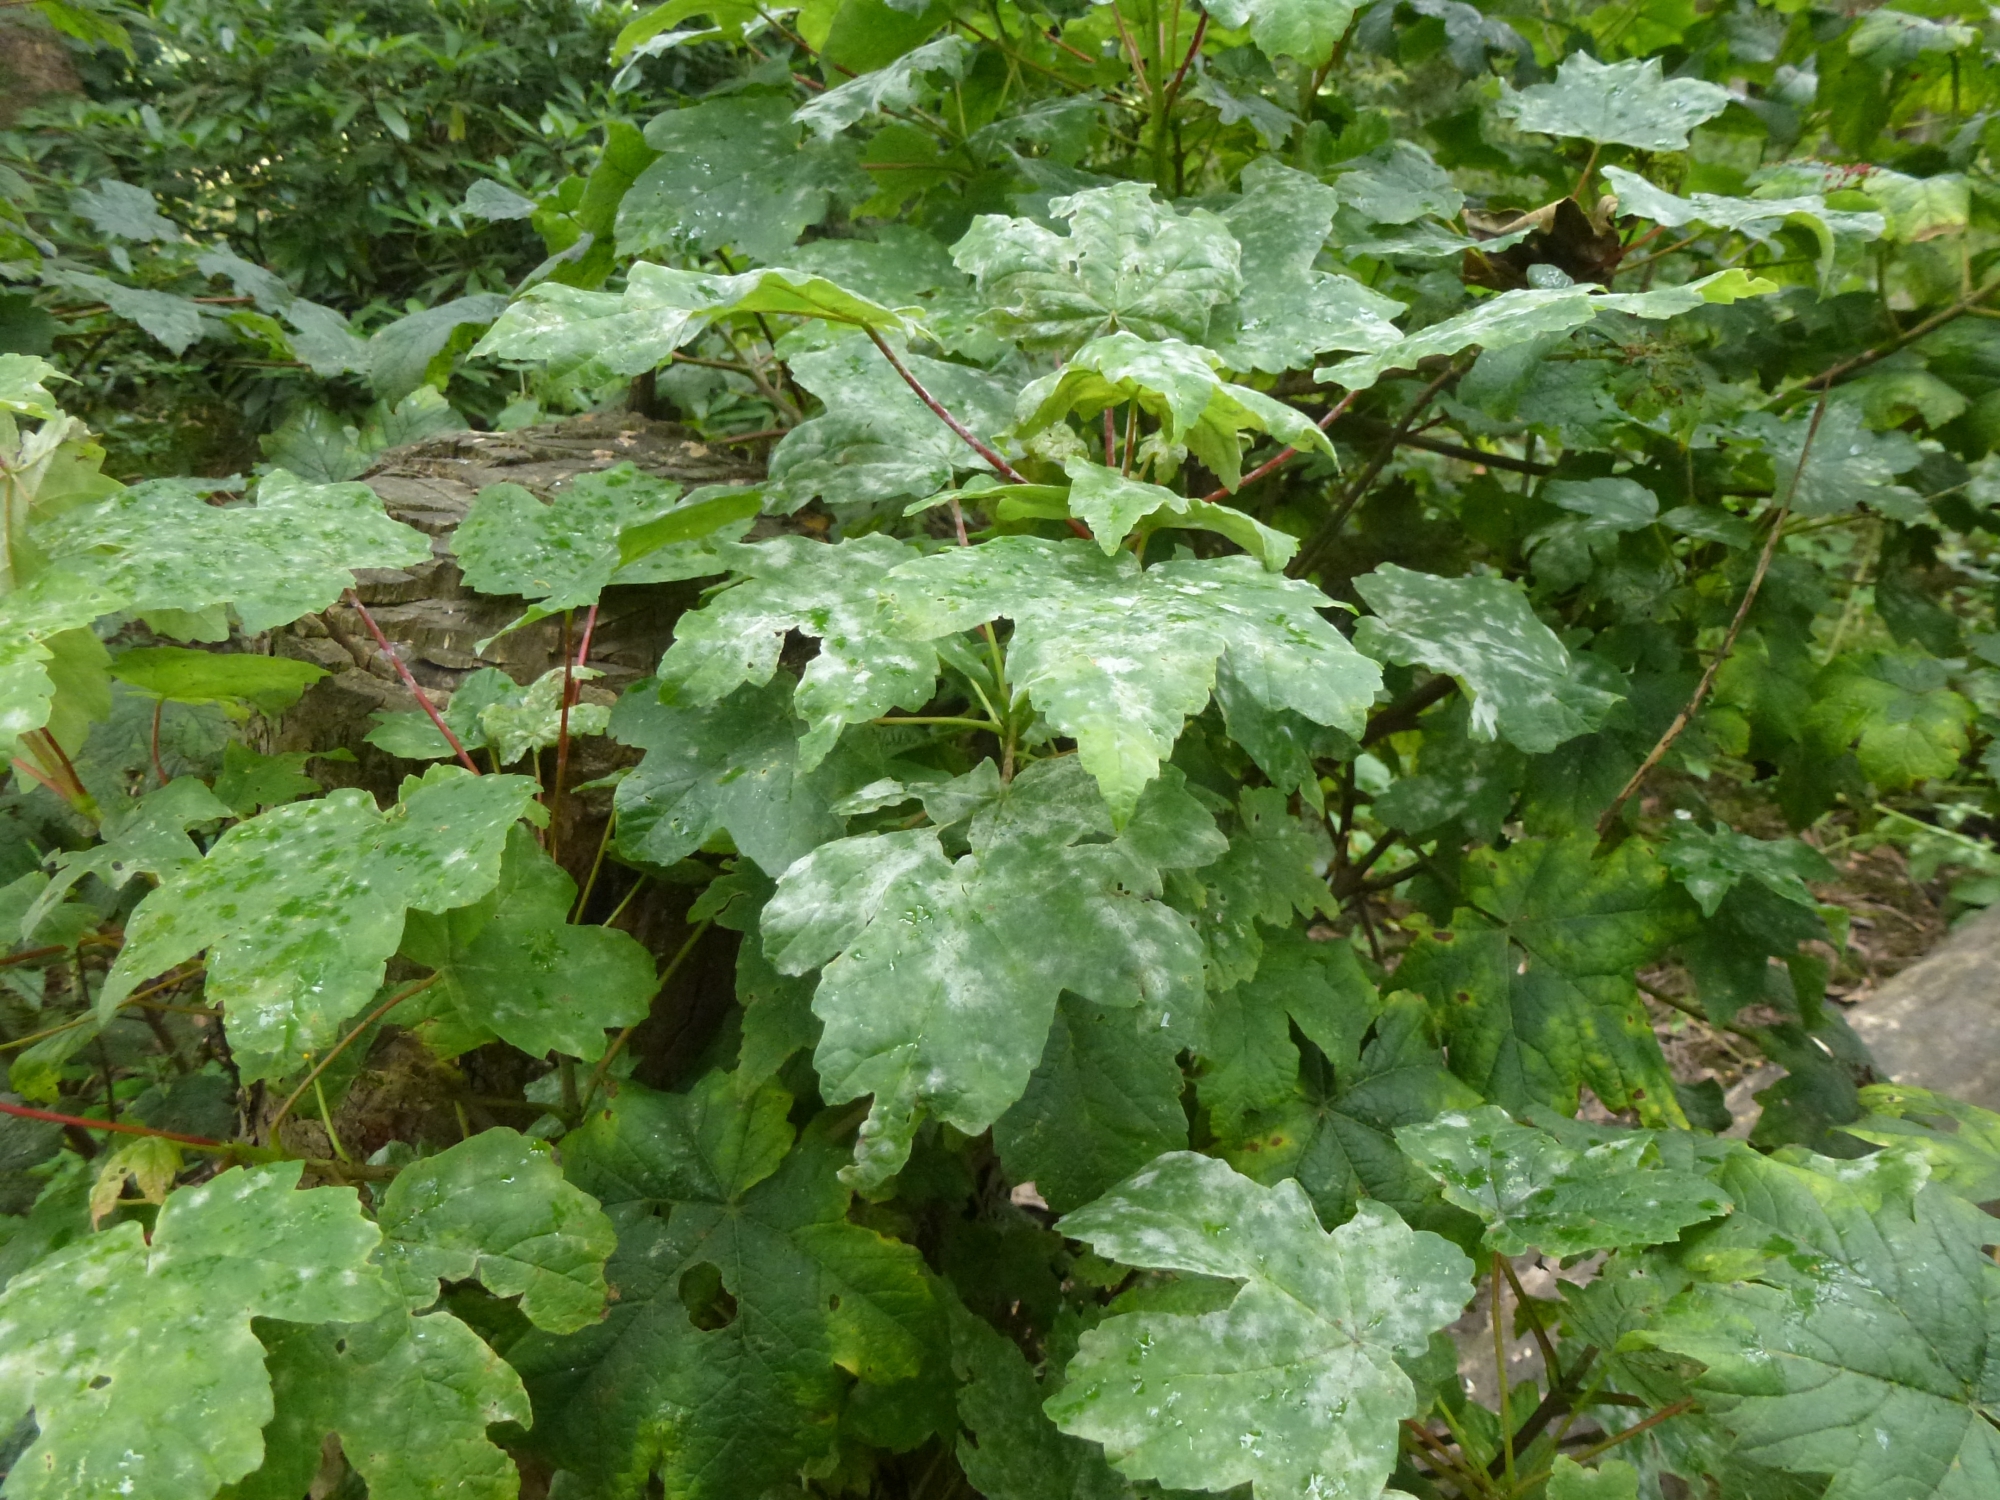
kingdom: Fungi
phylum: Ascomycota
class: Leotiomycetes
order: Helotiales
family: Erysiphaceae
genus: Sawadaea
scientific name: Sawadaea bicornis
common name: Maple mildew
